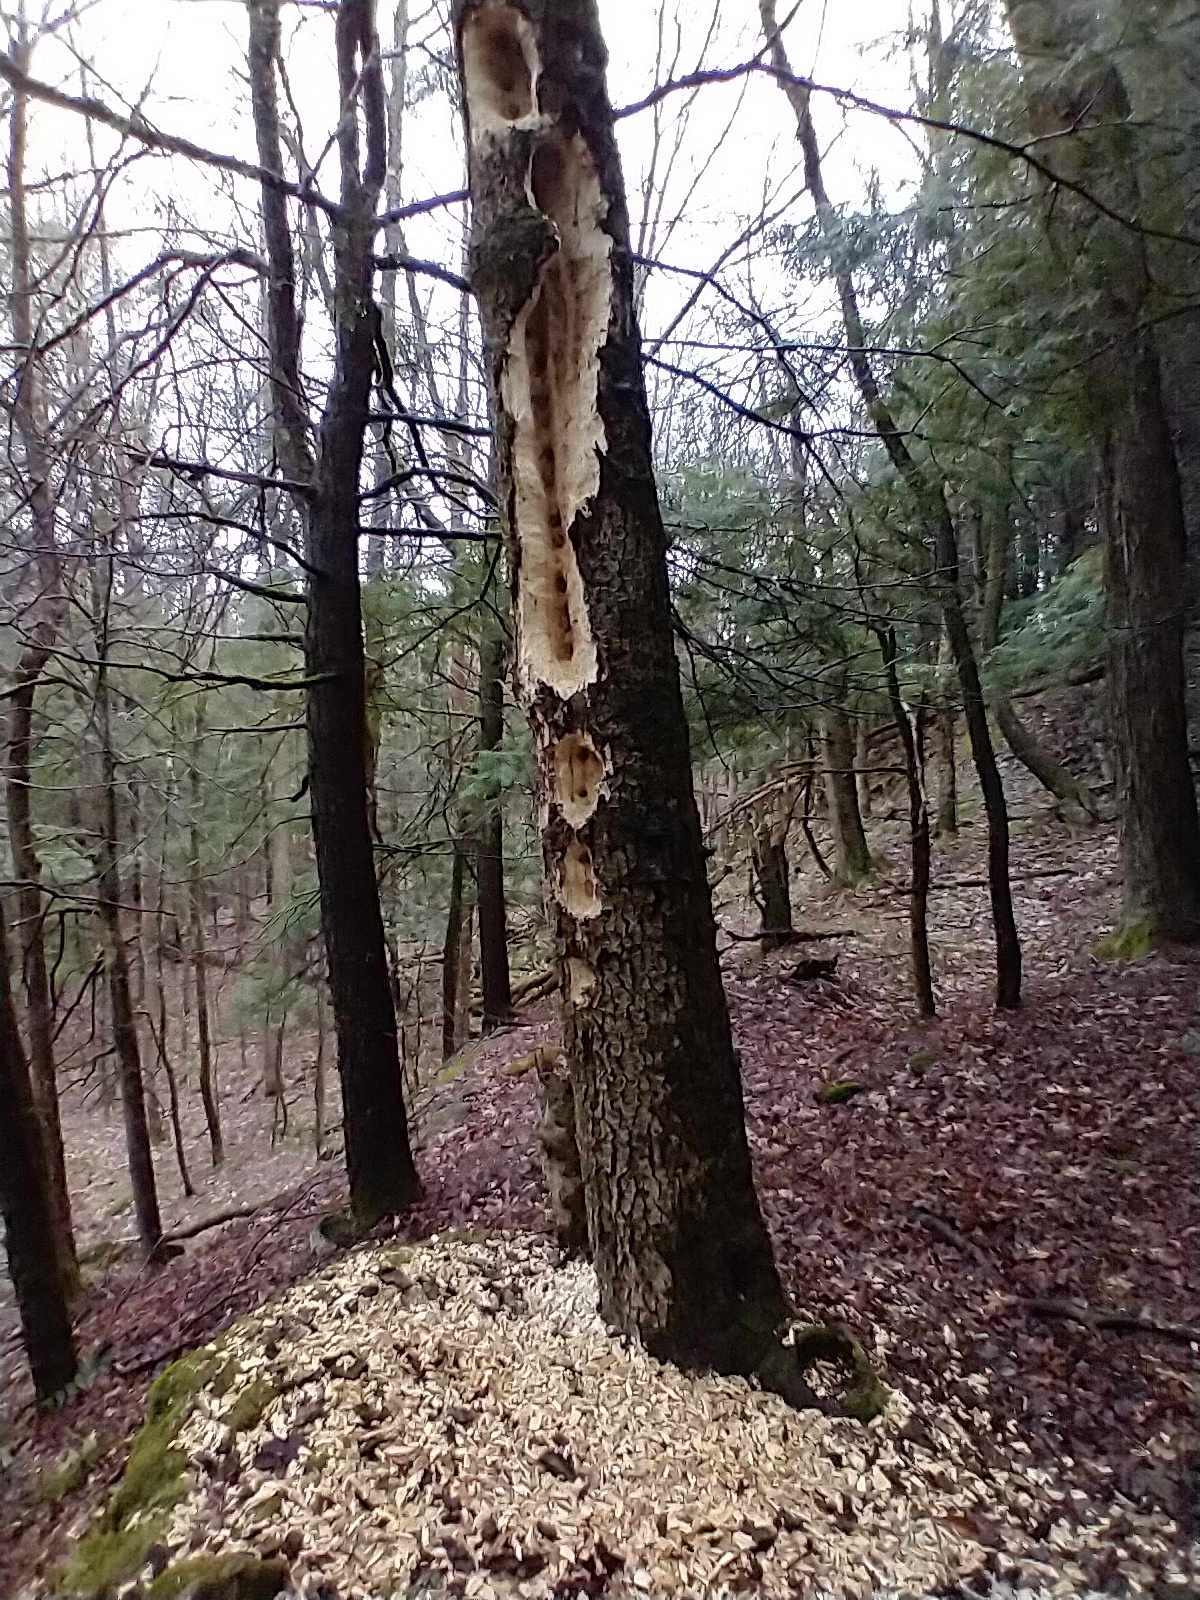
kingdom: Animalia
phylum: Chordata
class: Aves
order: Piciformes
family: Picidae
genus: Dryocopus
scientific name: Dryocopus pileatus
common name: Pileated woodpecker
